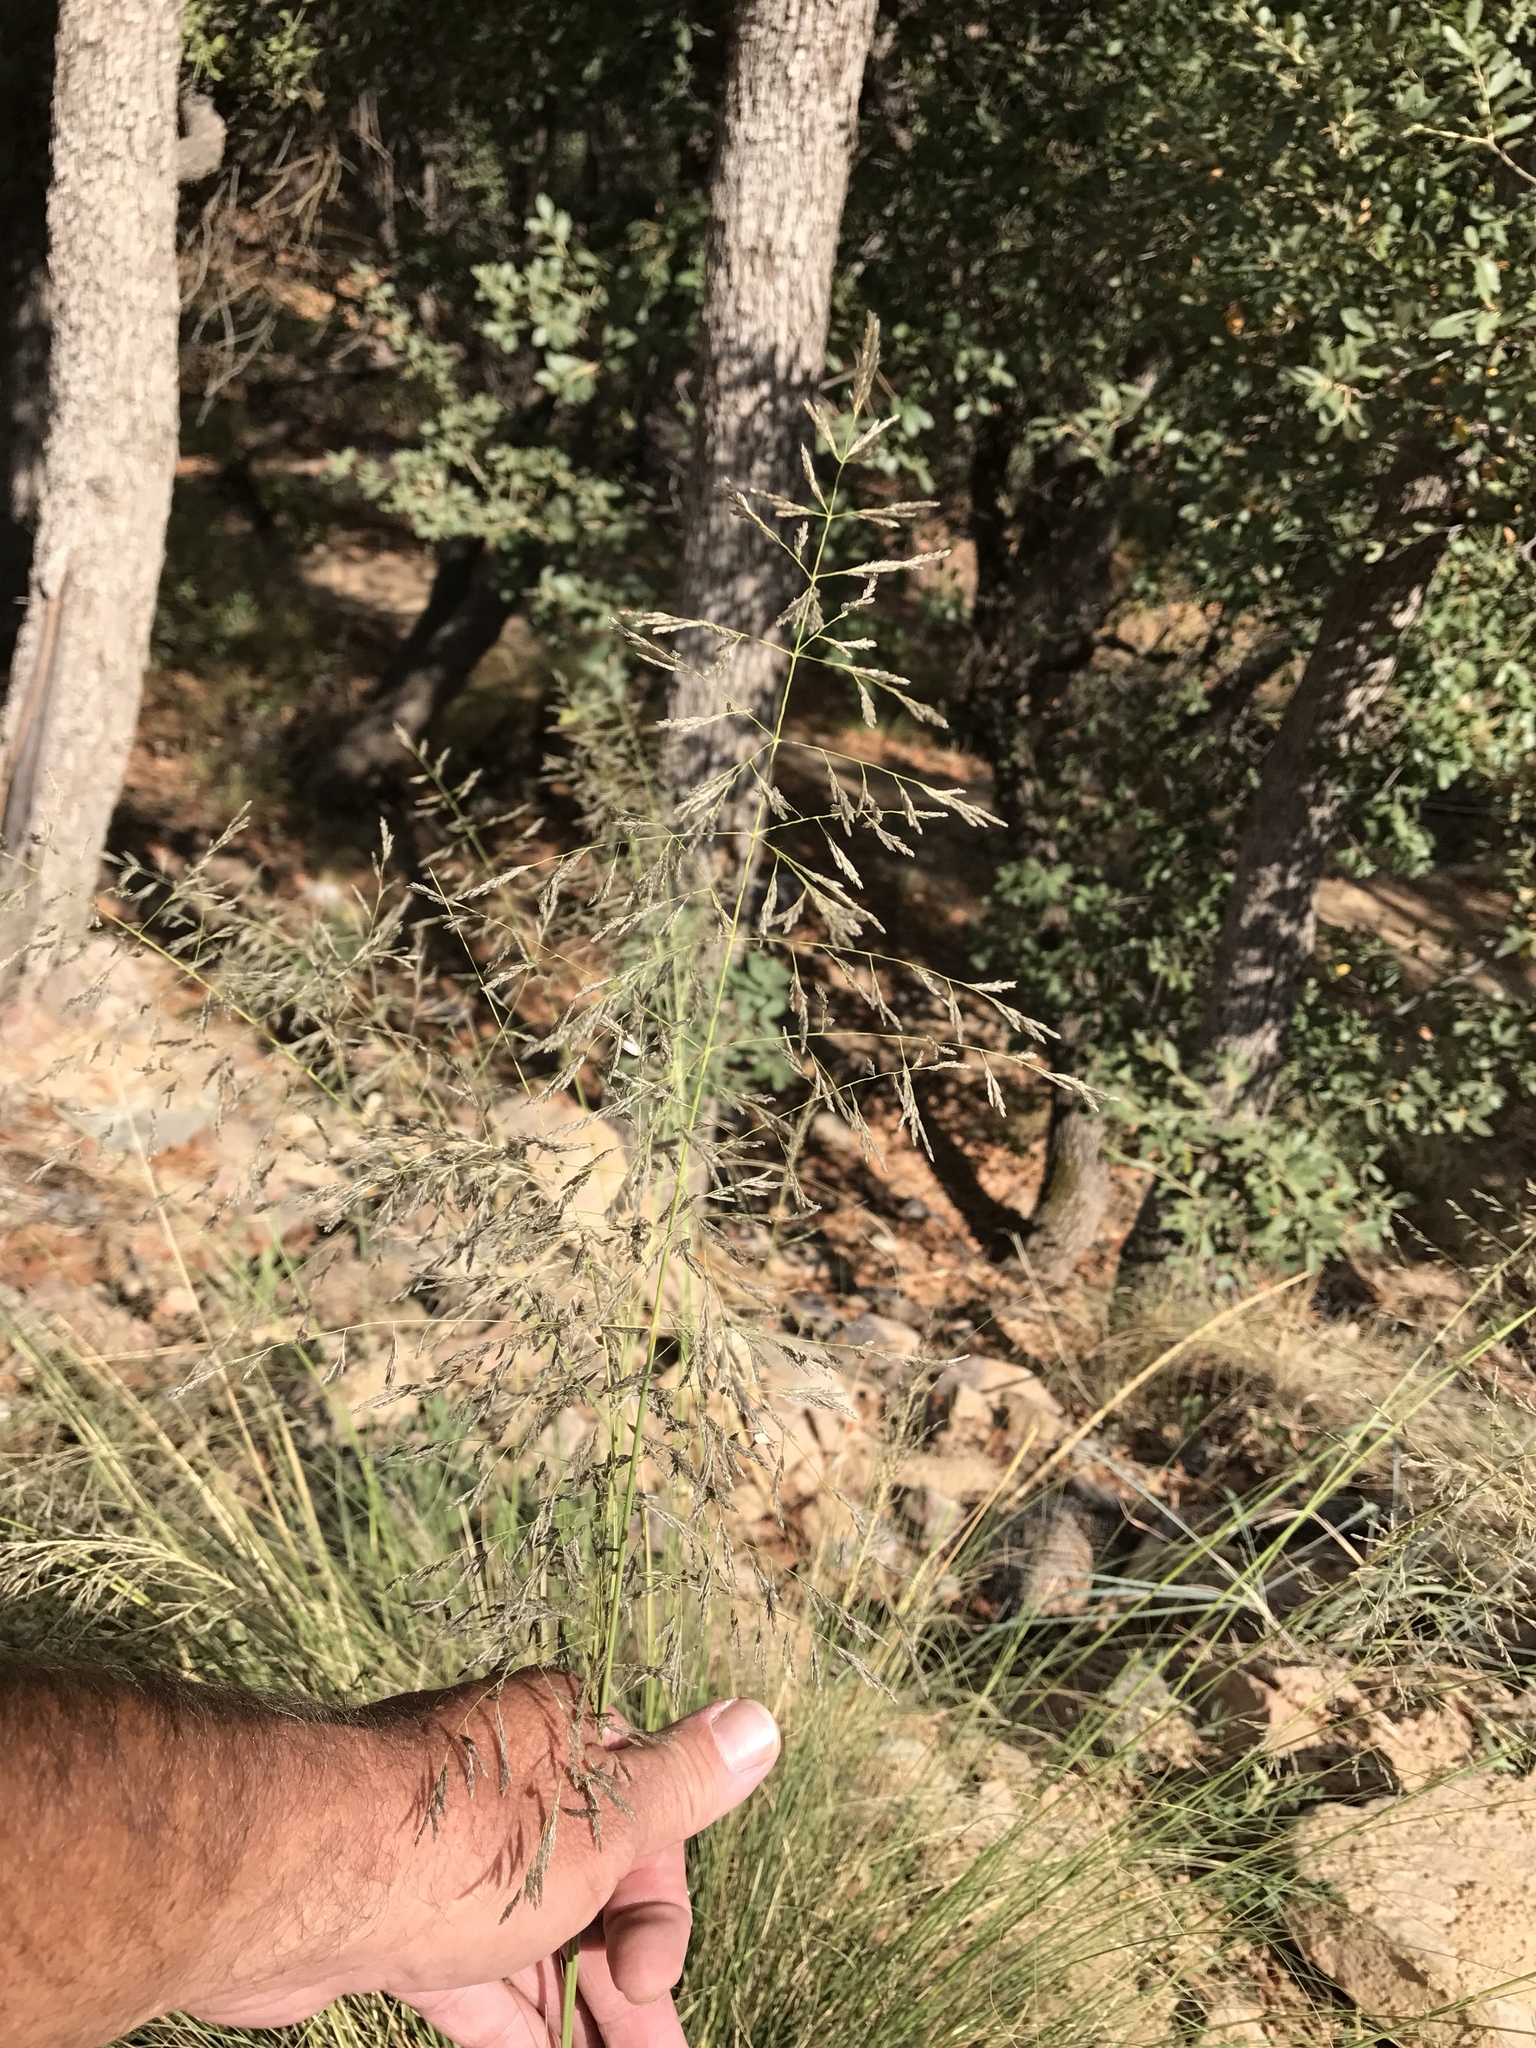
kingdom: Plantae
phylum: Tracheophyta
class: Liliopsida
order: Poales
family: Poaceae
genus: Eragrostis
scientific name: Eragrostis curvula
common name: African love-grass
